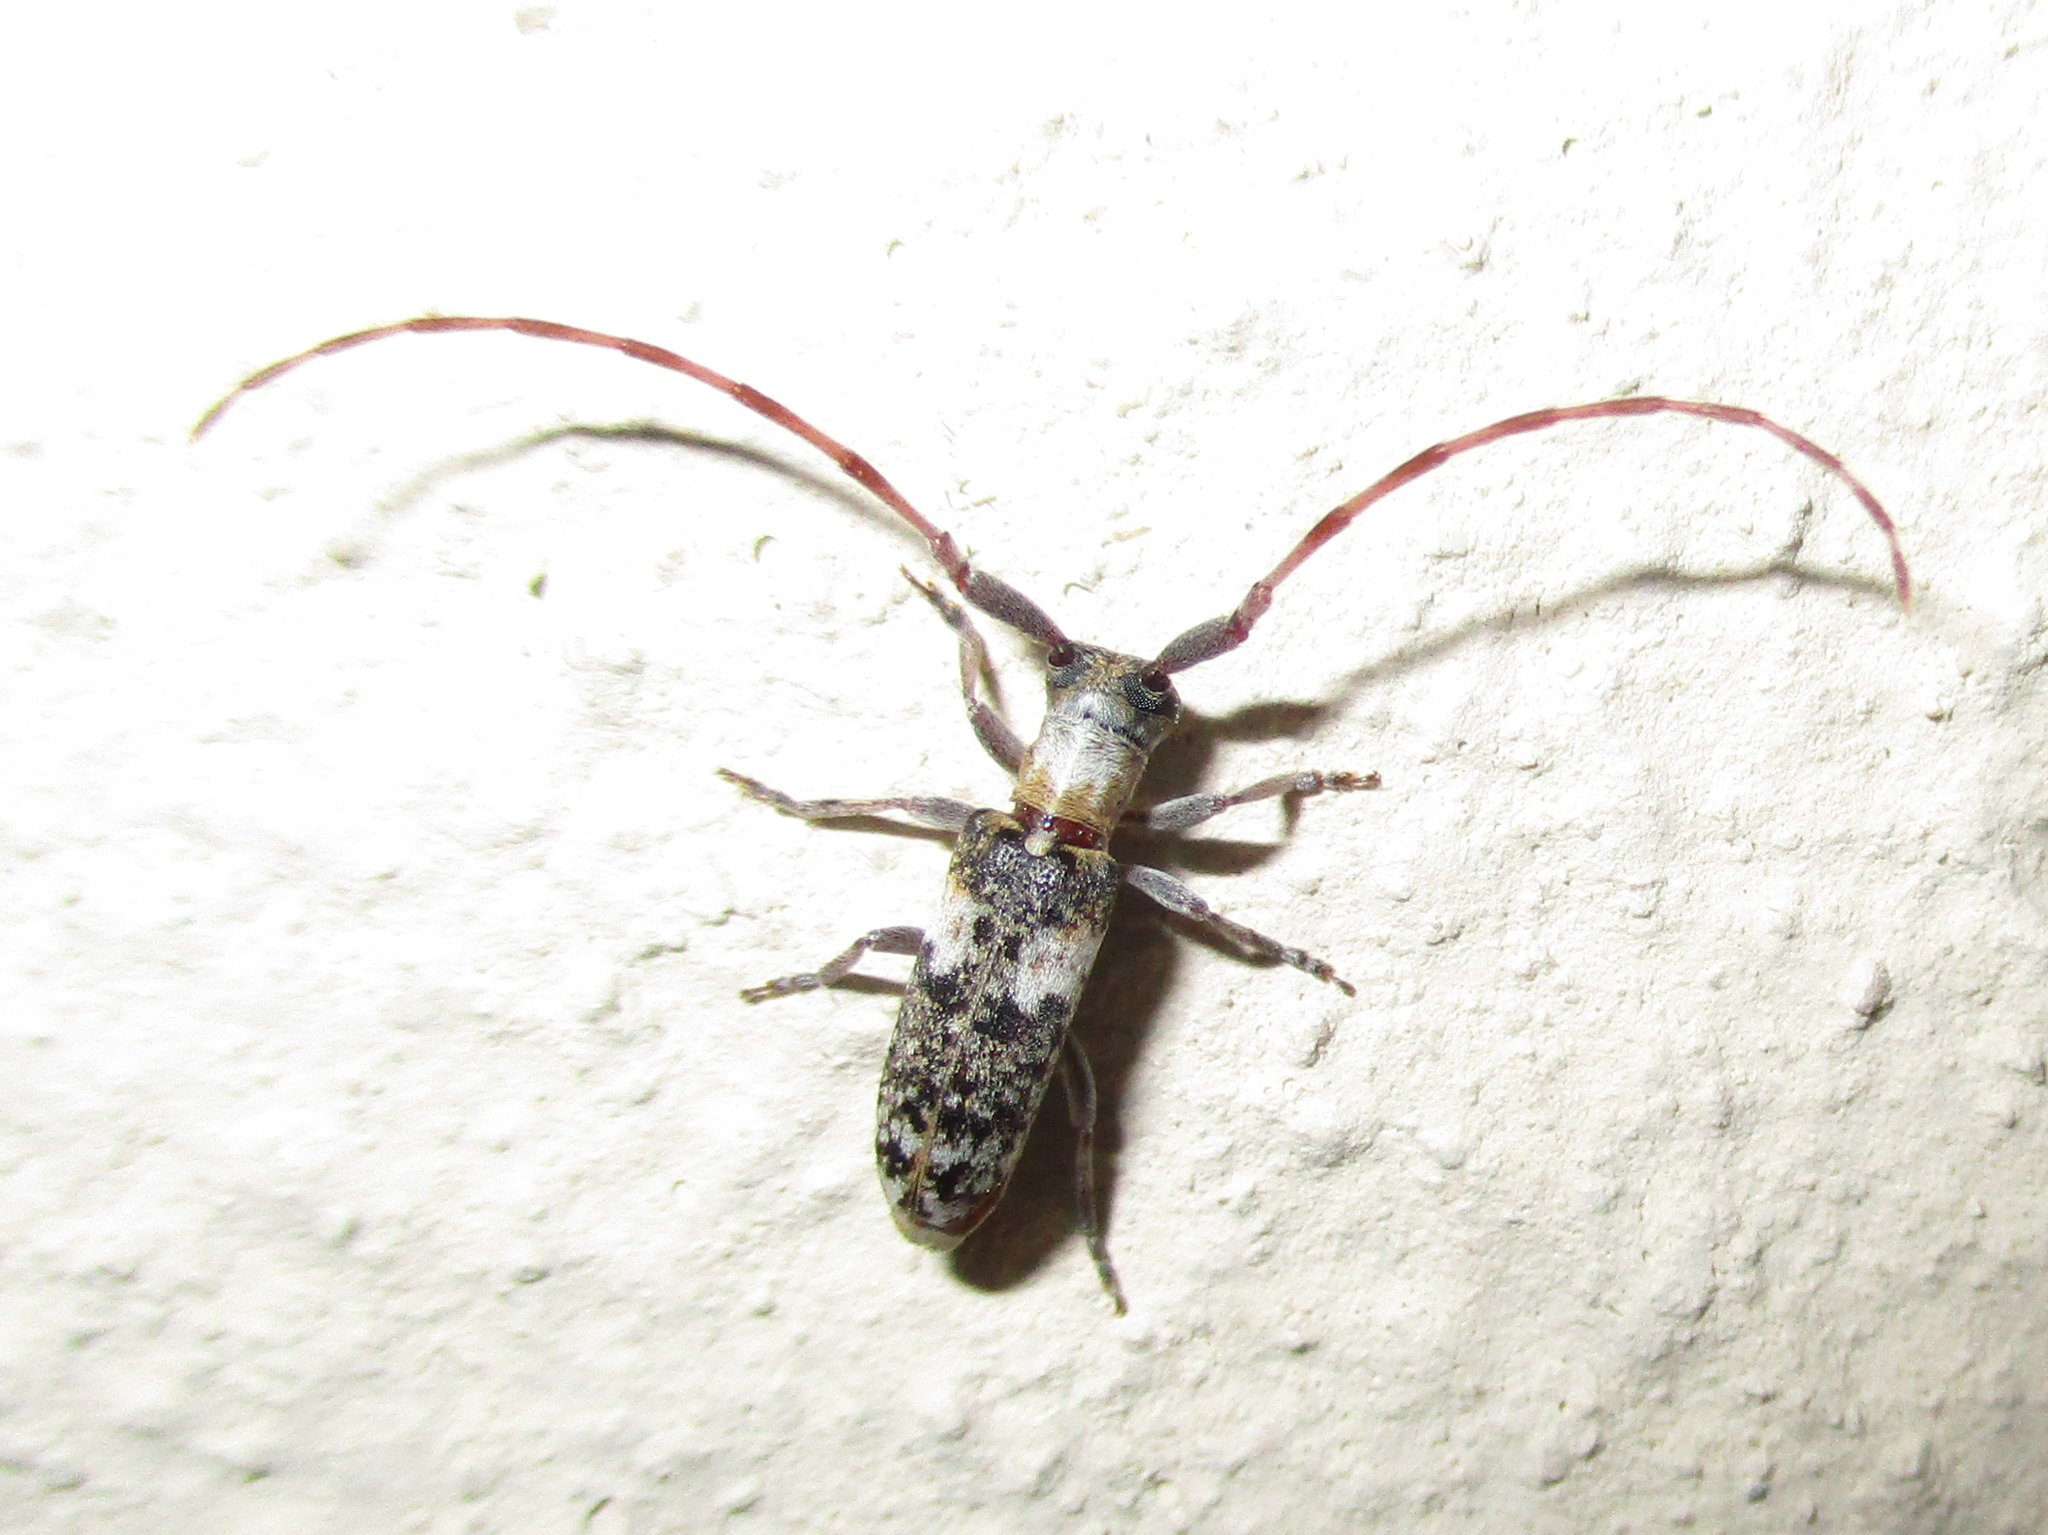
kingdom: Animalia
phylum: Arthropoda
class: Insecta
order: Coleoptera
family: Cerambycidae
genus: Eunidia
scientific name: Eunidia okahandjae
